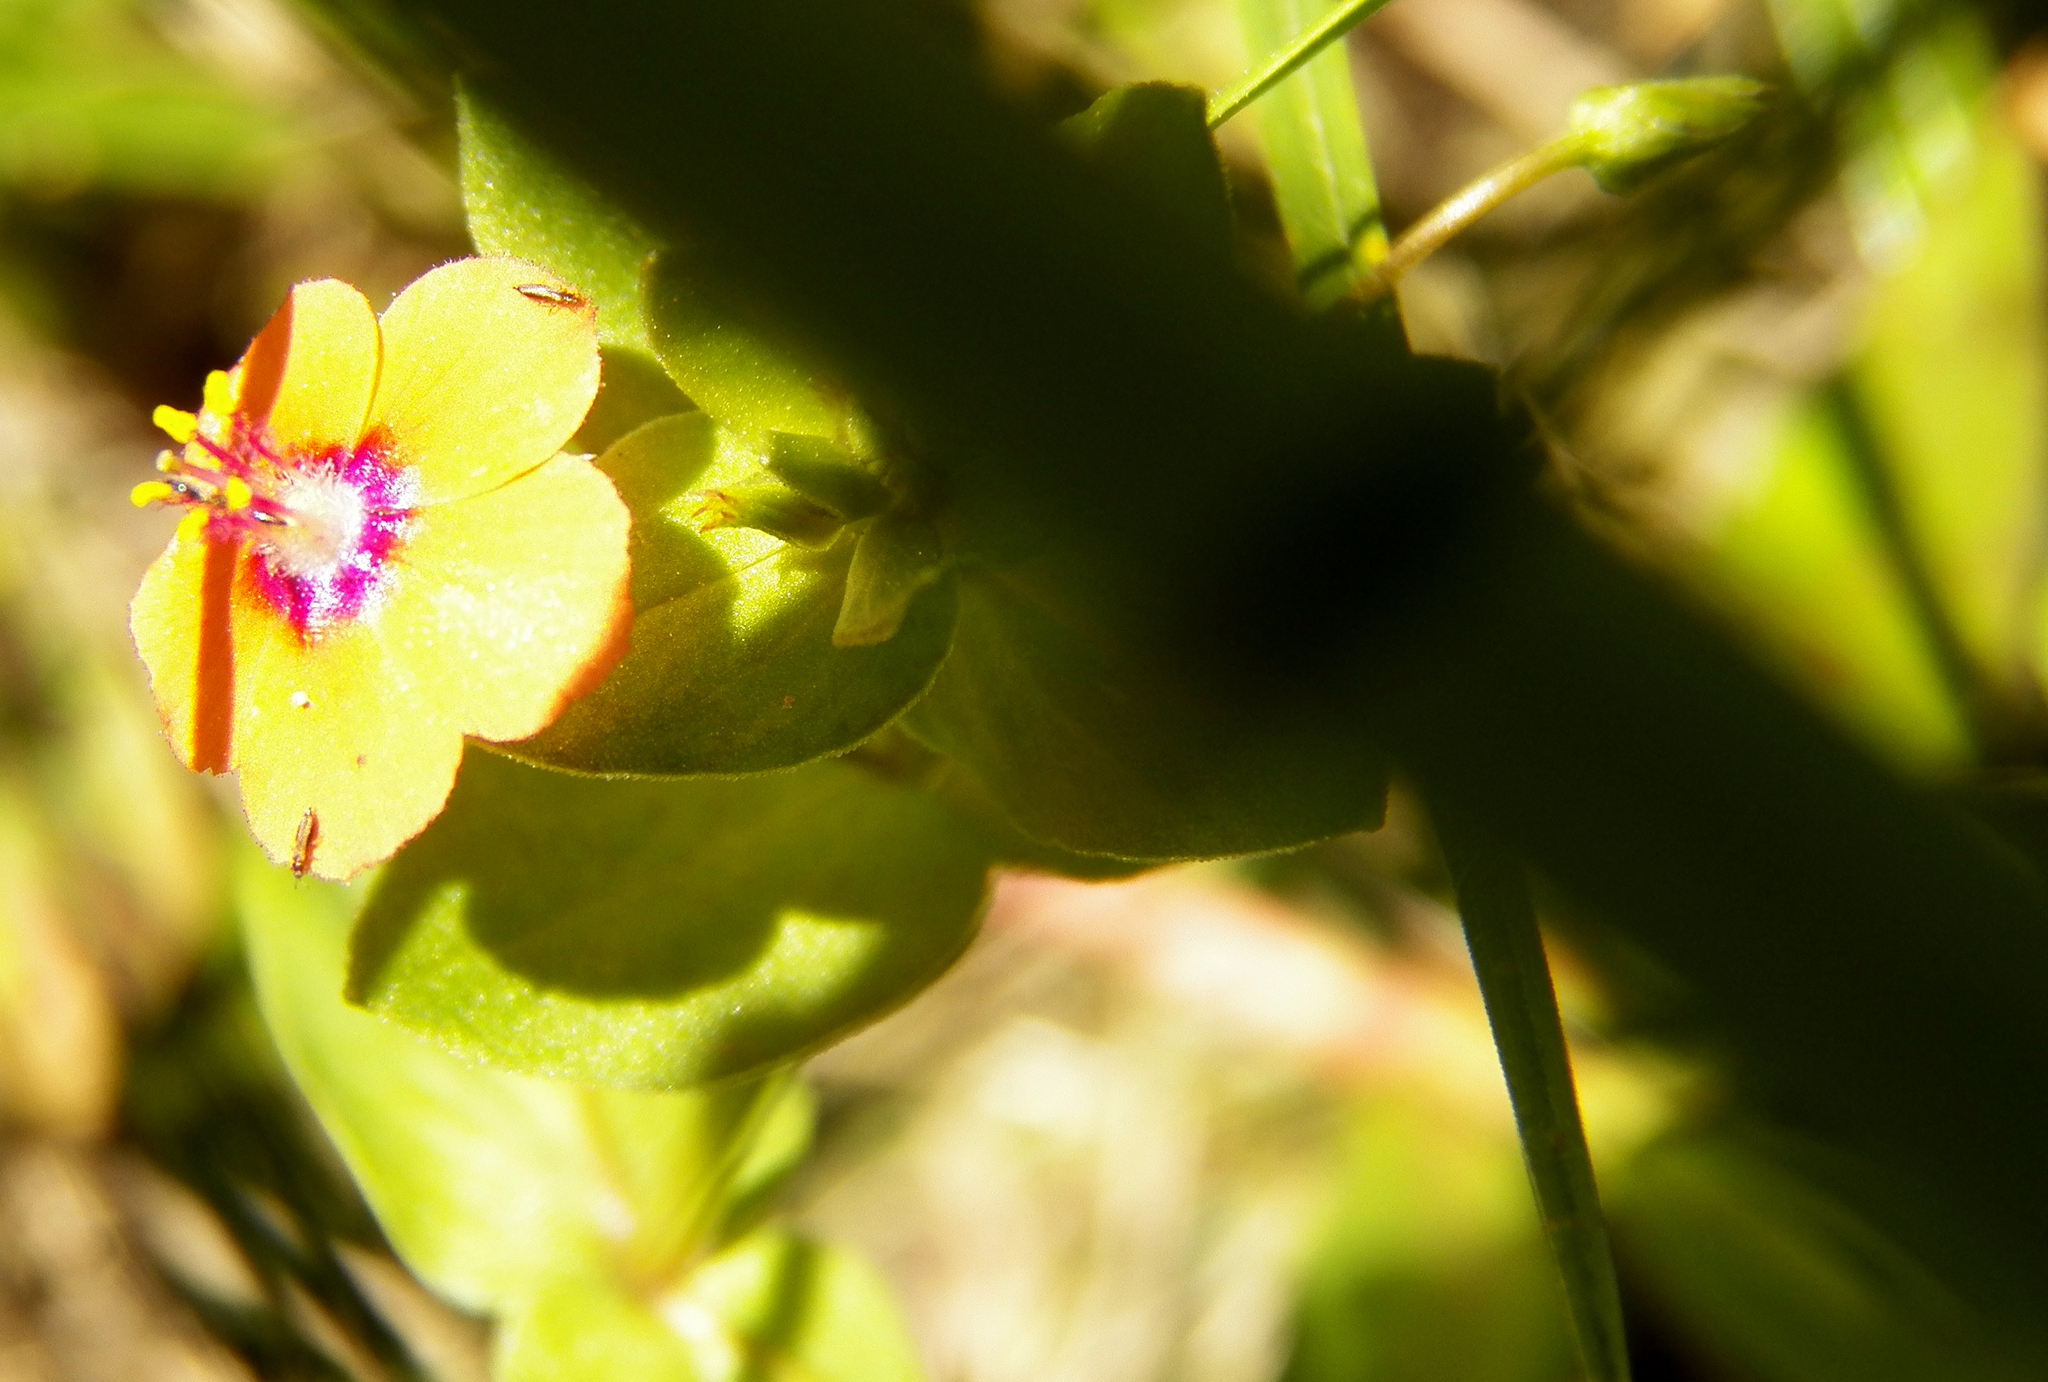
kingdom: Plantae
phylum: Tracheophyta
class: Magnoliopsida
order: Ericales
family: Primulaceae
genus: Lysimachia
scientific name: Lysimachia arvensis
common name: Scarlet pimpernel
